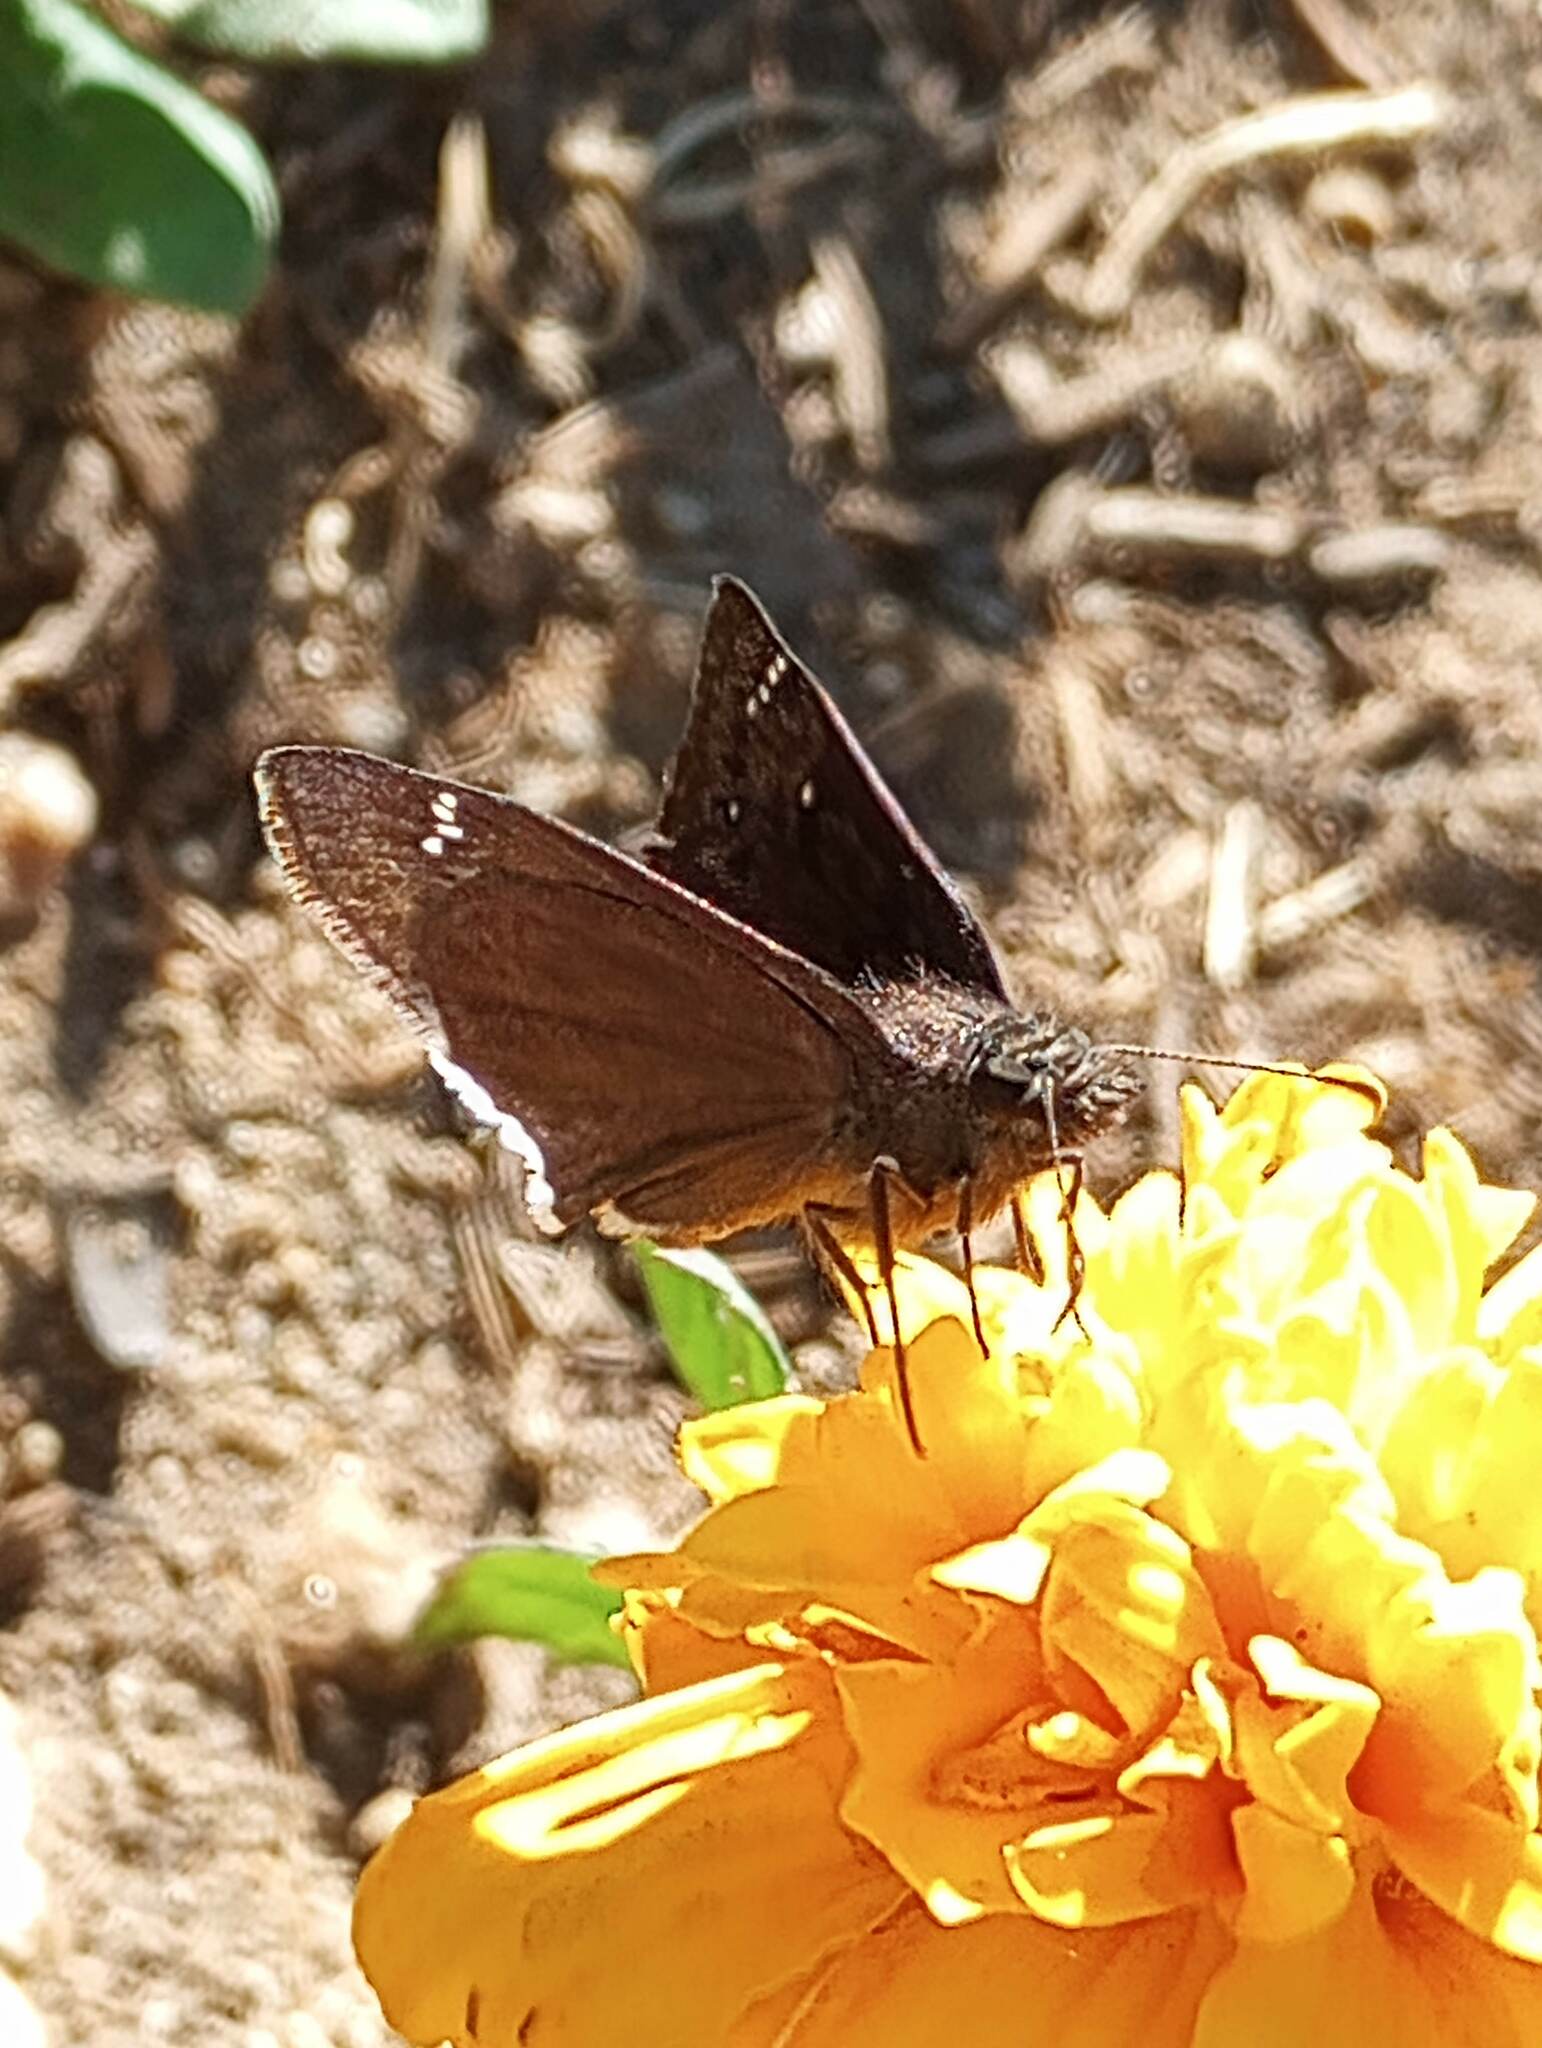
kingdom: Animalia
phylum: Arthropoda
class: Insecta
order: Lepidoptera
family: Hesperiidae
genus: Erynnis
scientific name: Erynnis tristis
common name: Mournful duskywing
